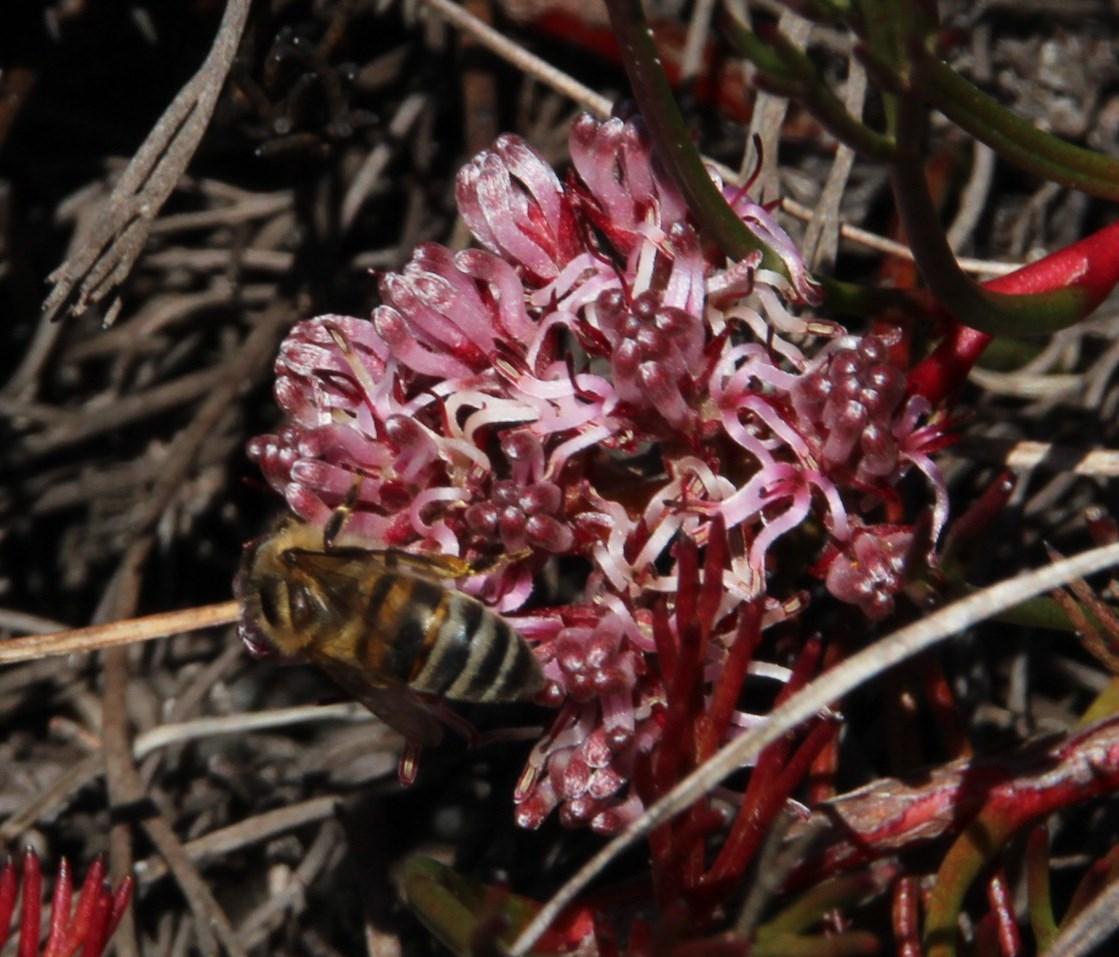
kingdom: Animalia
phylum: Arthropoda
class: Insecta
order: Hymenoptera
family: Apidae
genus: Apis
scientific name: Apis mellifera
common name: Honey bee
